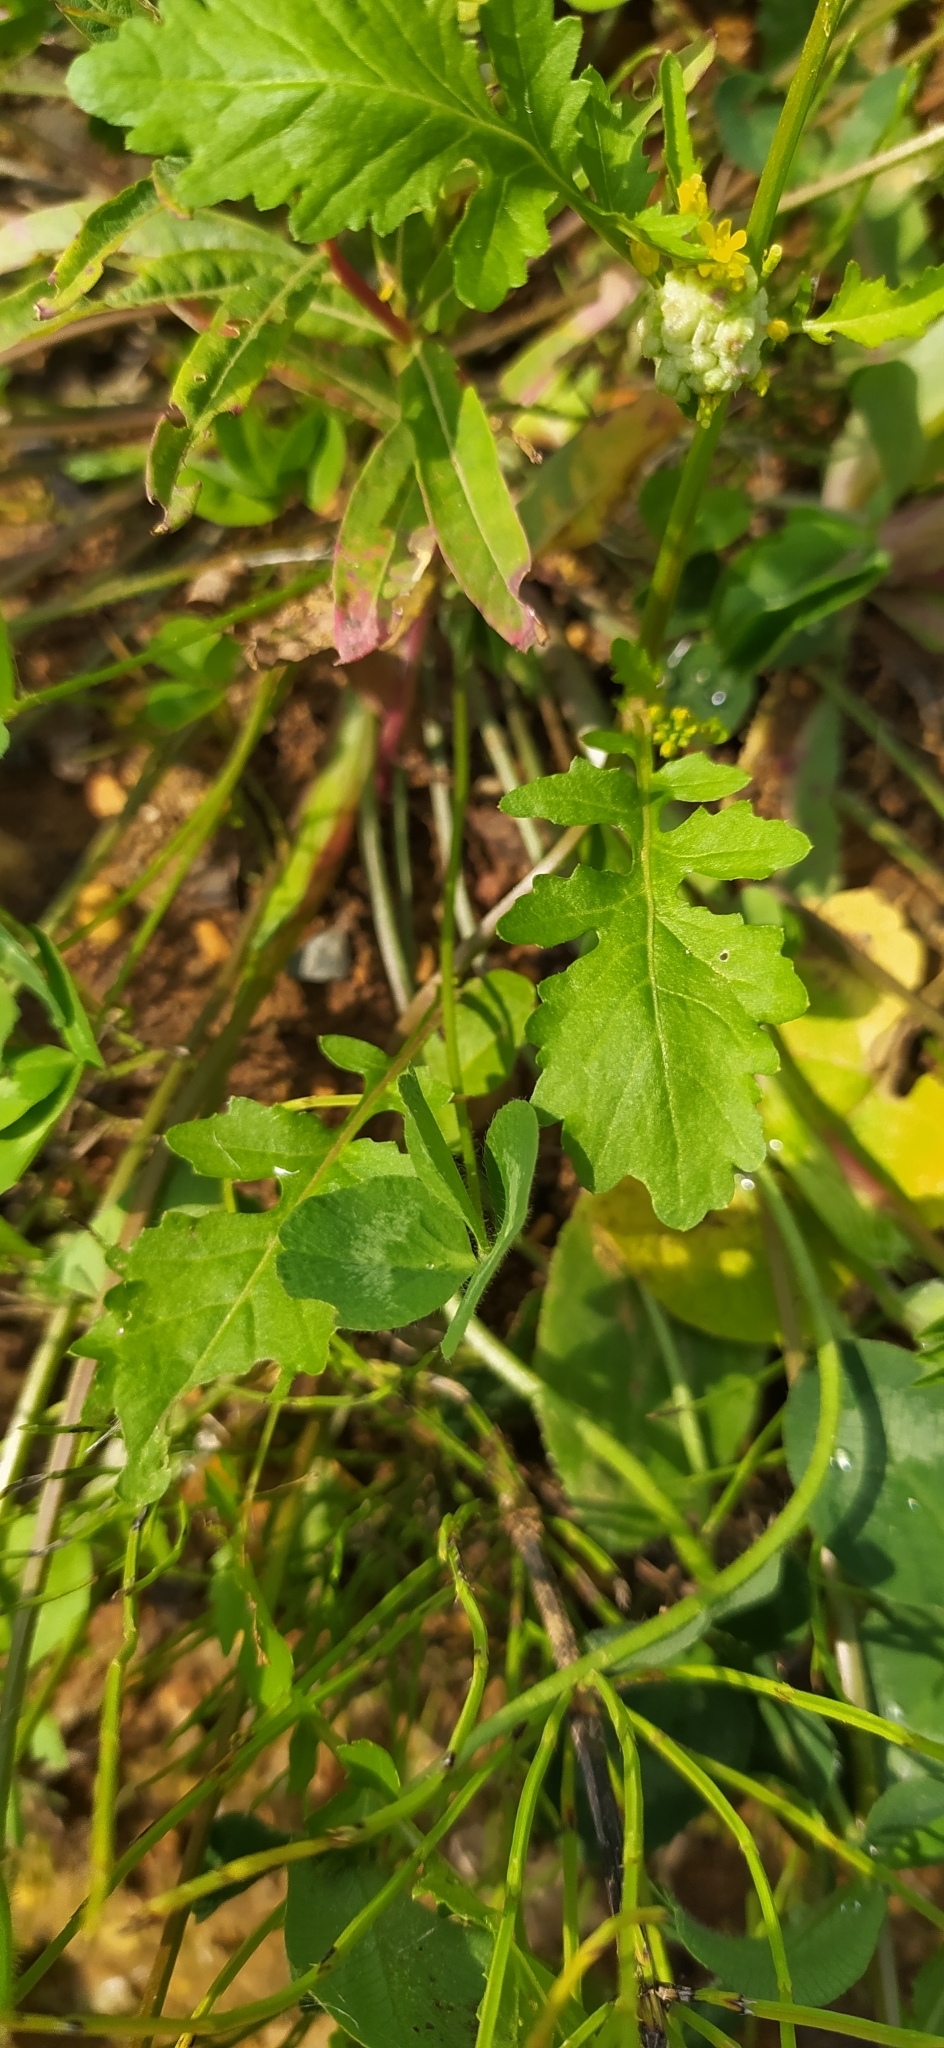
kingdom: Plantae
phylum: Tracheophyta
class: Magnoliopsida
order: Brassicales
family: Brassicaceae
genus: Rorippa
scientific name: Rorippa palustris
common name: Marsh yellow-cress
